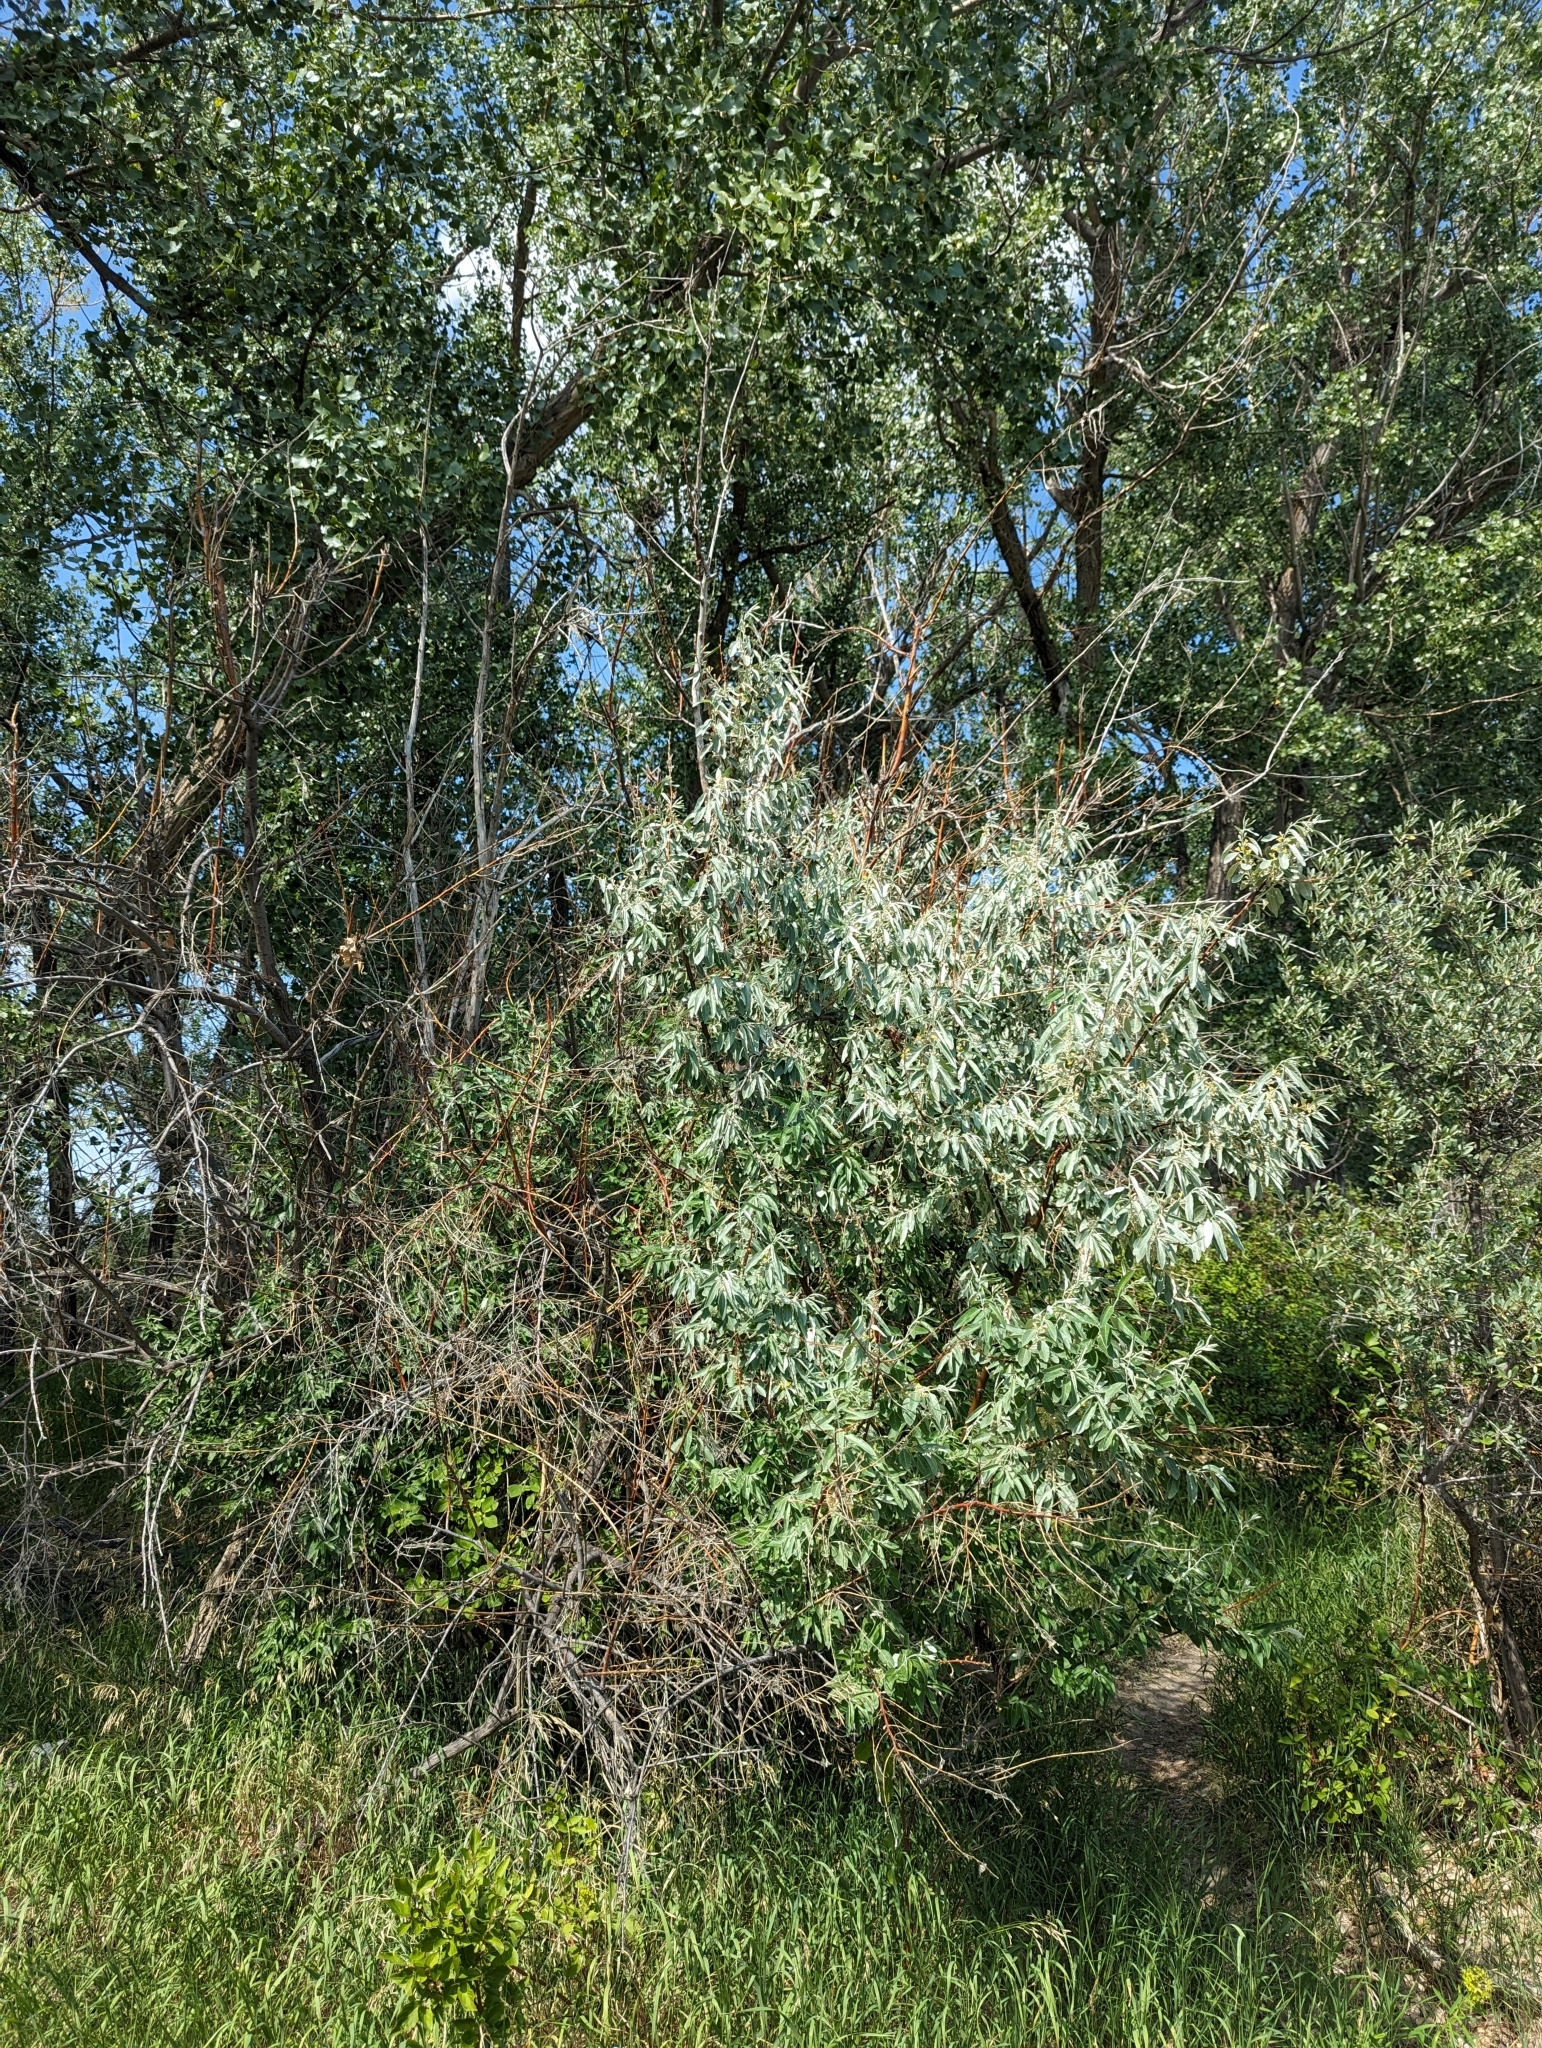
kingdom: Plantae
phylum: Tracheophyta
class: Magnoliopsida
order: Rosales
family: Elaeagnaceae
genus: Elaeagnus
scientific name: Elaeagnus angustifolia
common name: Russian olive
